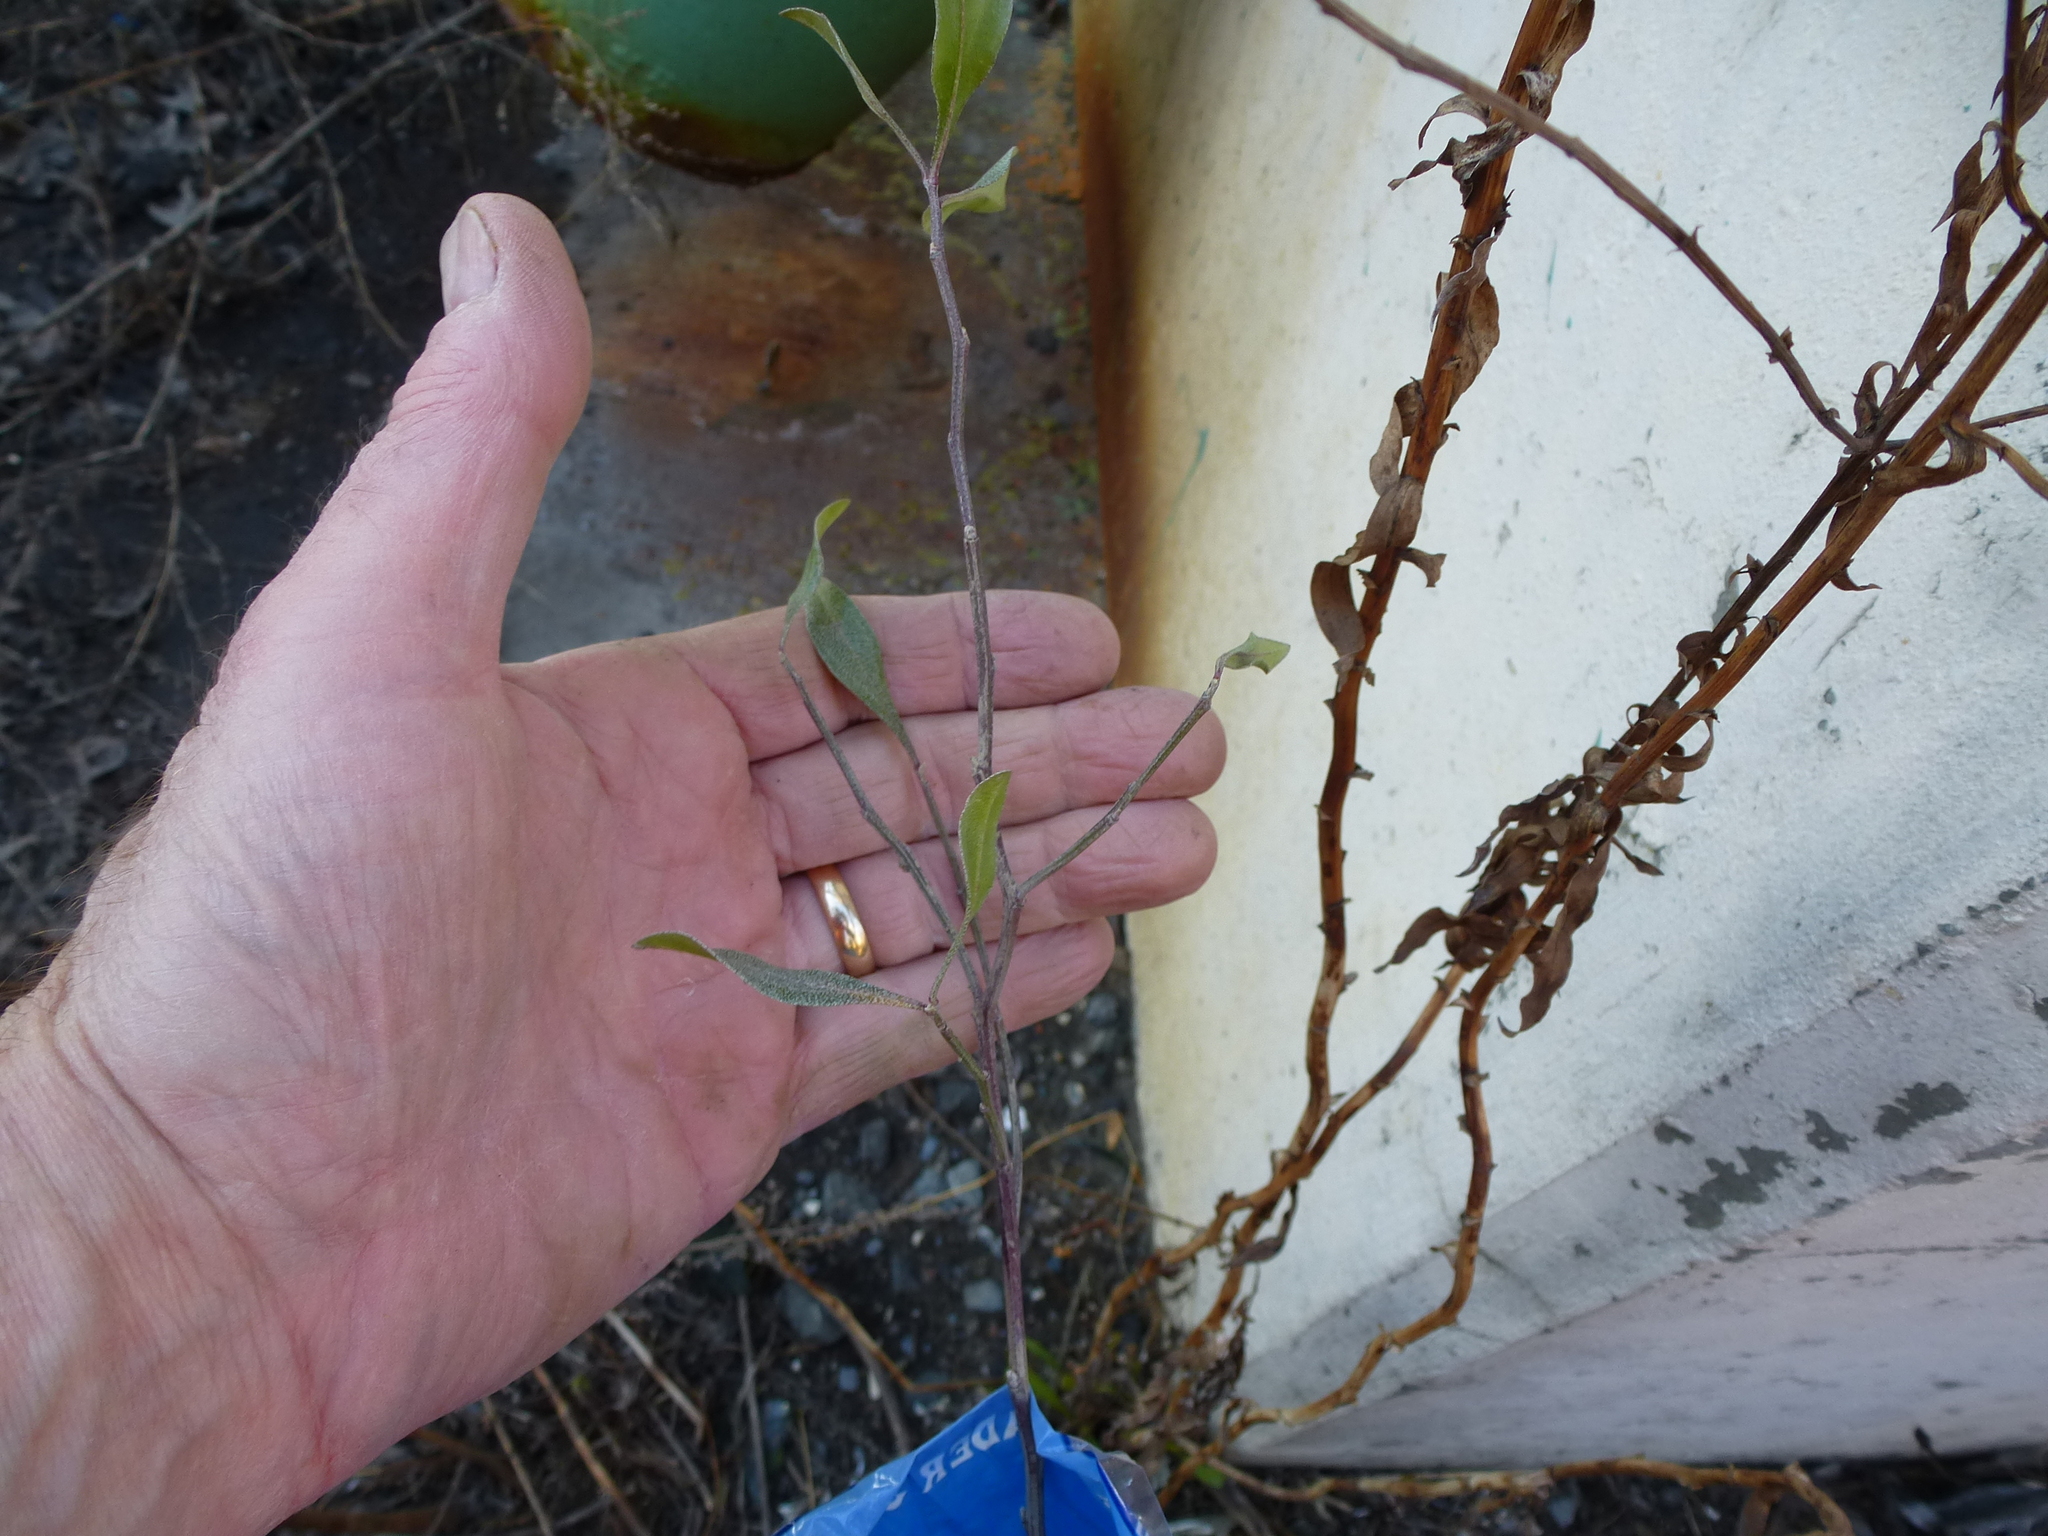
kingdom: Plantae
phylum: Tracheophyta
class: Magnoliopsida
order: Asterales
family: Asteraceae
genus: Baccharis
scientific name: Baccharis halimifolia
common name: Eastern baccharis
